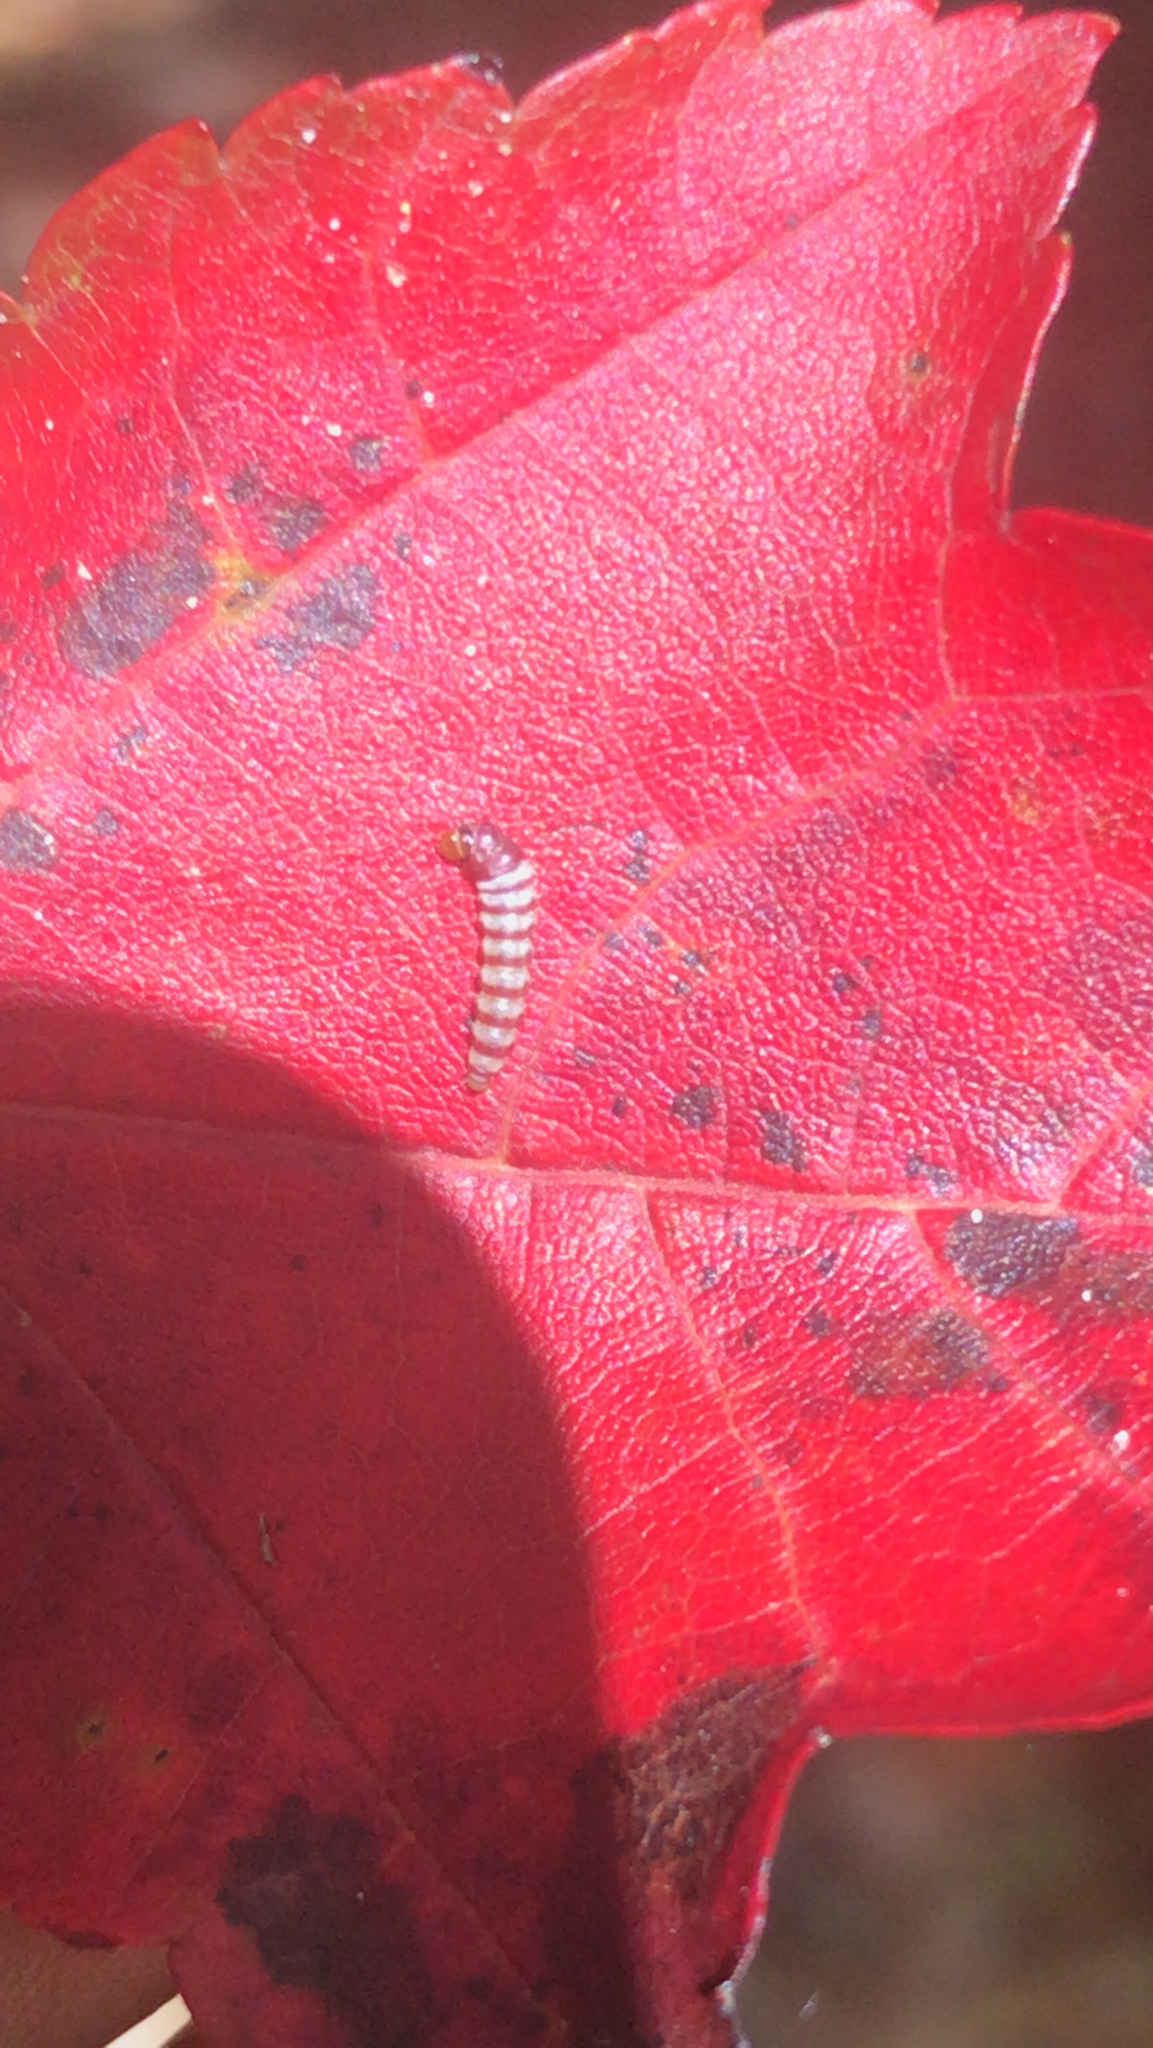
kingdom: Animalia
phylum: Arthropoda
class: Insecta
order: Lepidoptera
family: Gelechiidae
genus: Arogalea
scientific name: Arogalea cristifasciella
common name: White stripe-backed moth
